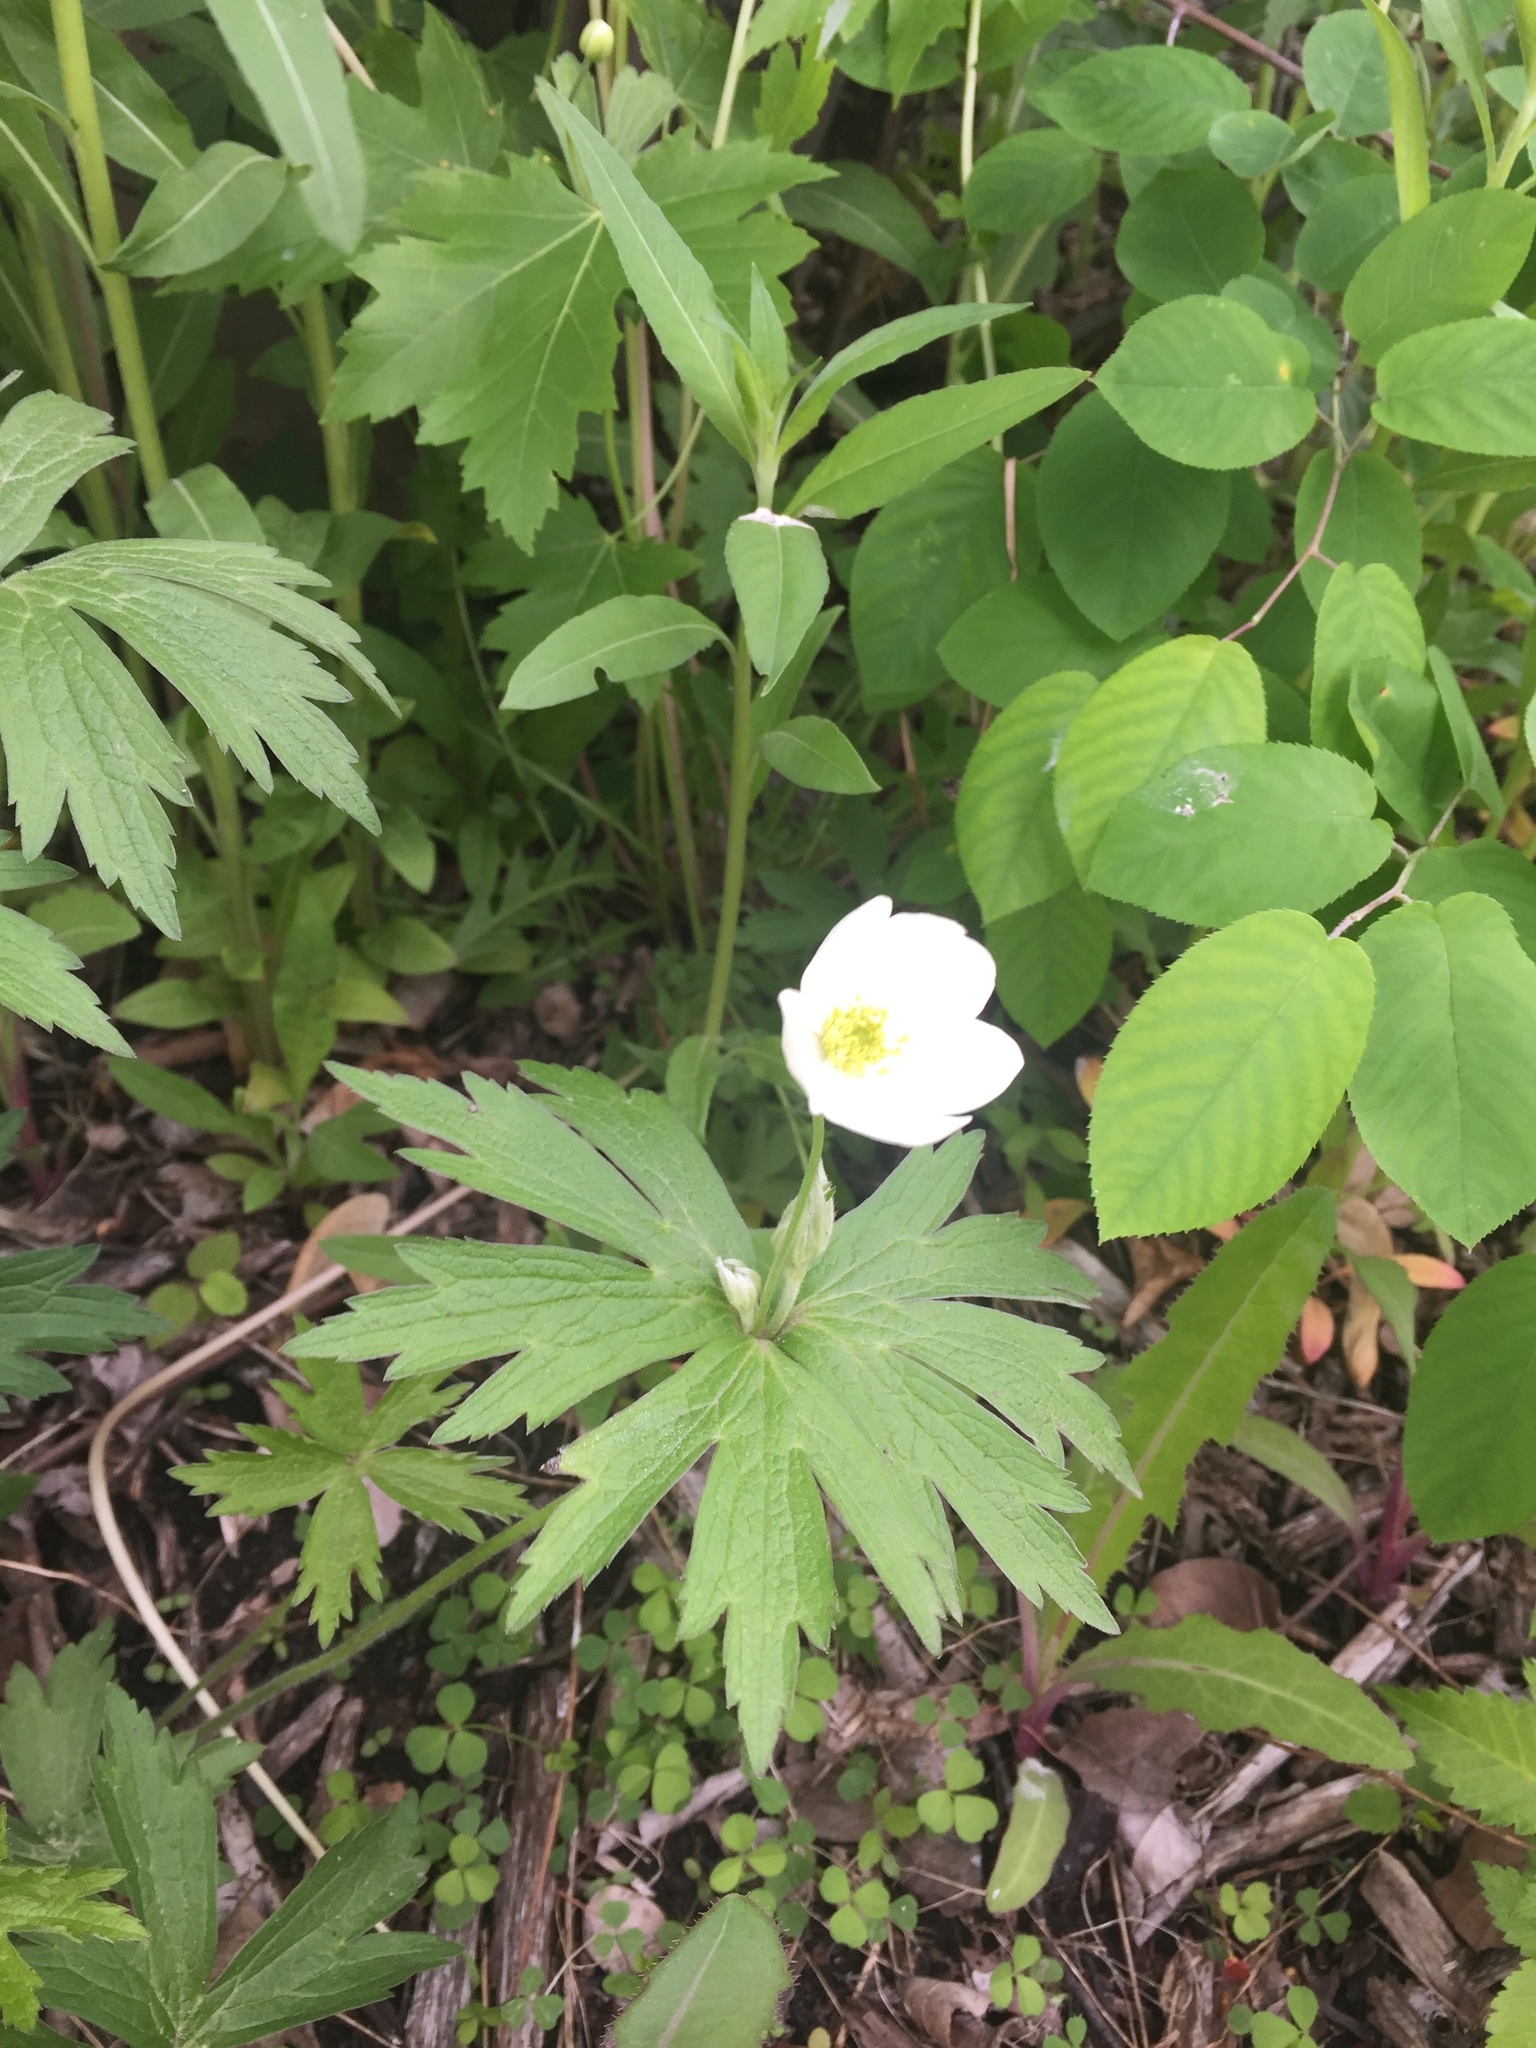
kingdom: Plantae
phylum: Tracheophyta
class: Magnoliopsida
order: Ranunculales
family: Ranunculaceae
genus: Anemonastrum
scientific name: Anemonastrum canadense
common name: Canada anemone
